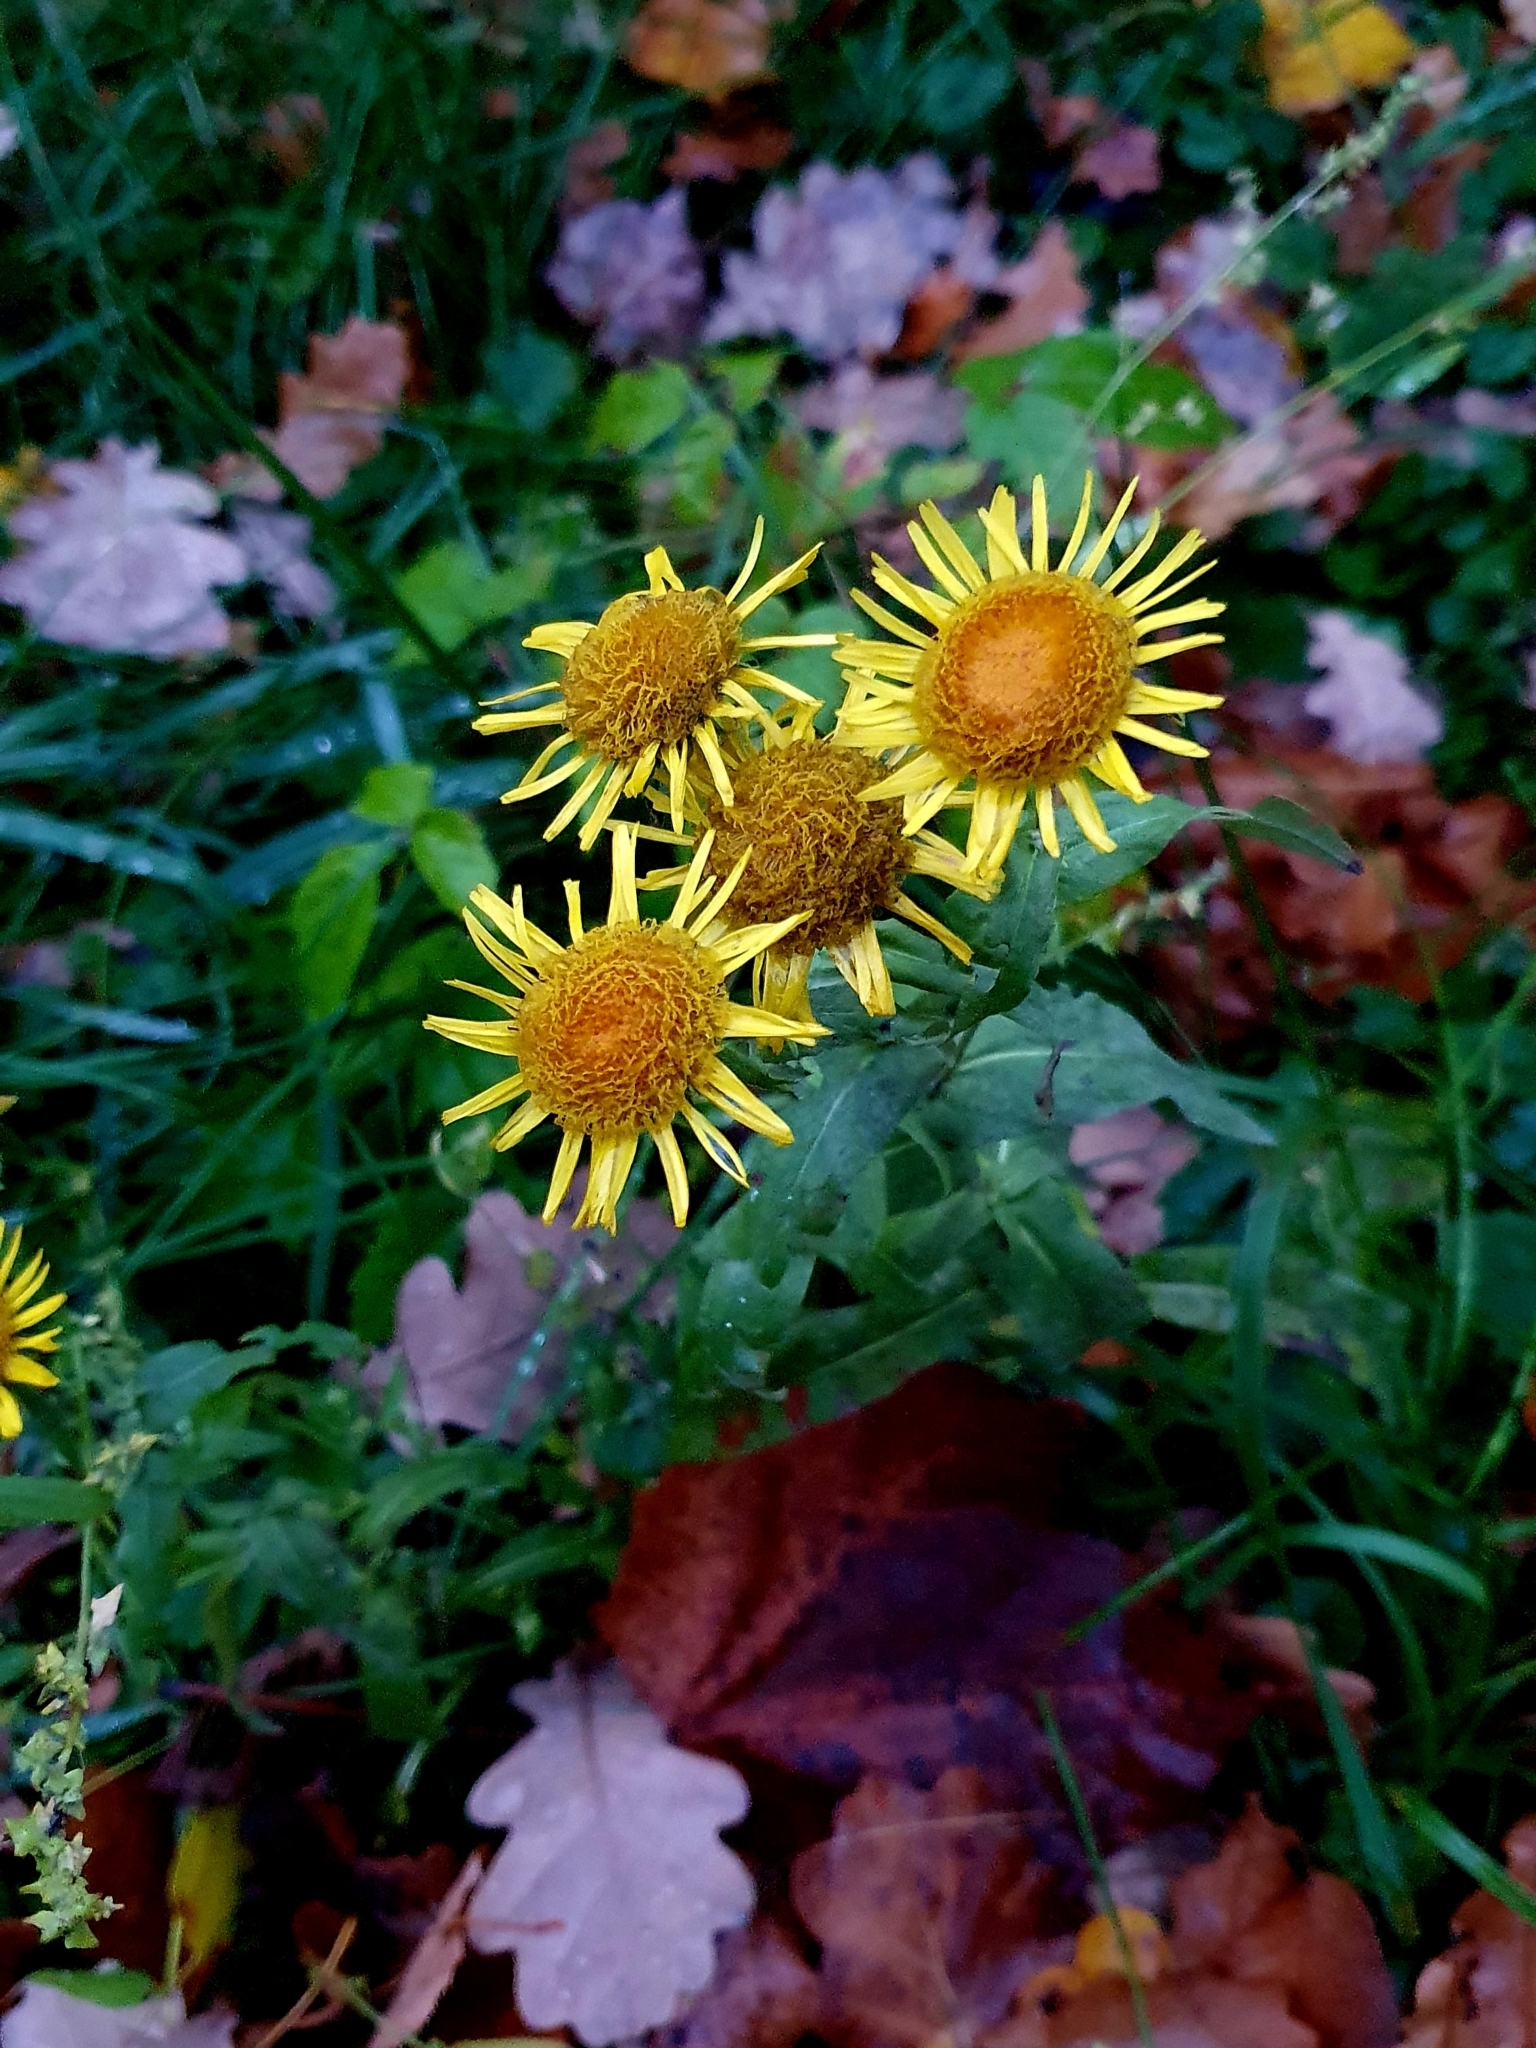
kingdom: Plantae
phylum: Tracheophyta
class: Magnoliopsida
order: Asterales
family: Asteraceae
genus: Pentanema
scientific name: Pentanema britannicum
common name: British elecampane
